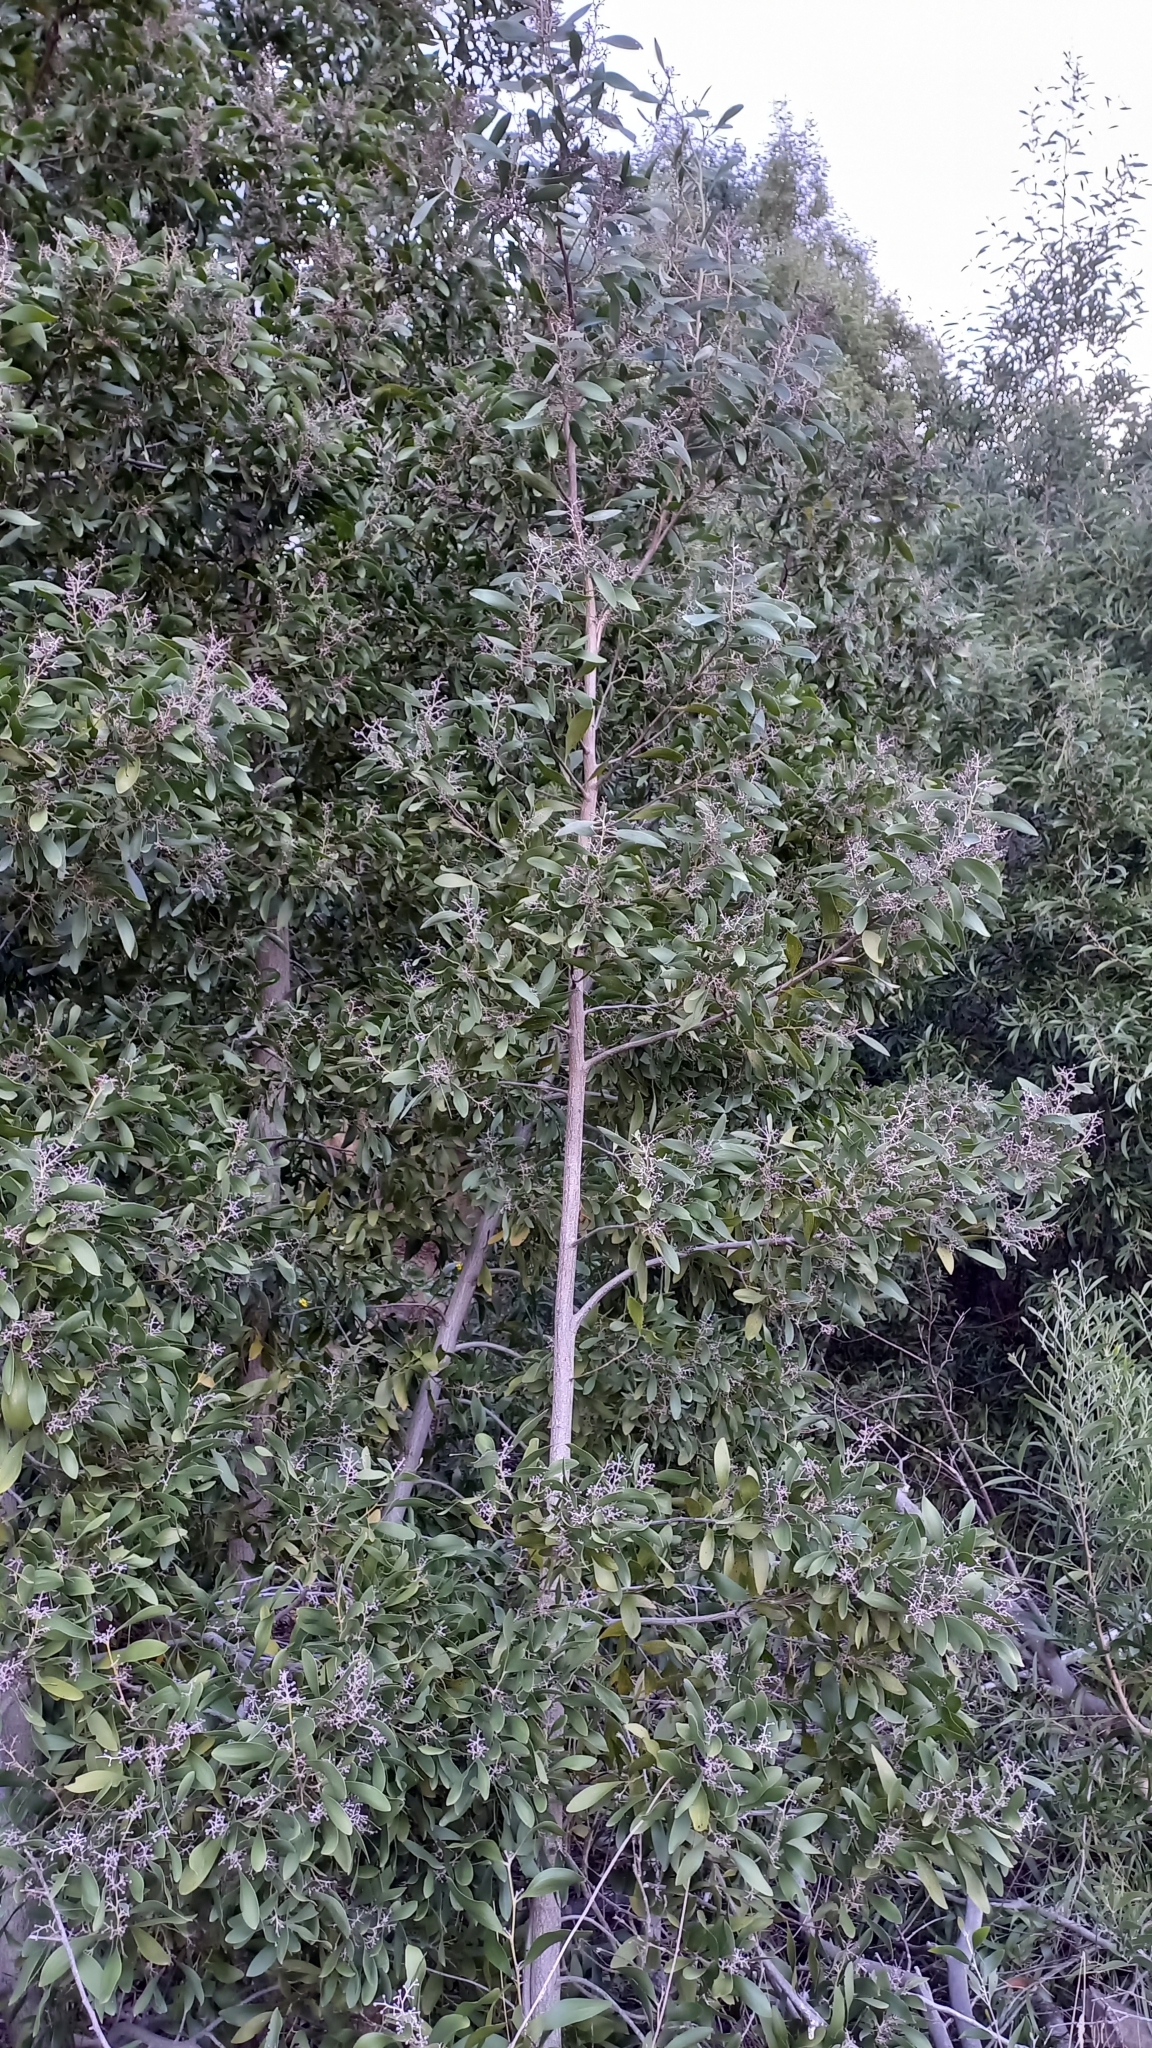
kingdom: Plantae
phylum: Tracheophyta
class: Magnoliopsida
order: Fabales
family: Fabaceae
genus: Acacia
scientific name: Acacia melanoxylon
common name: Blackwood
